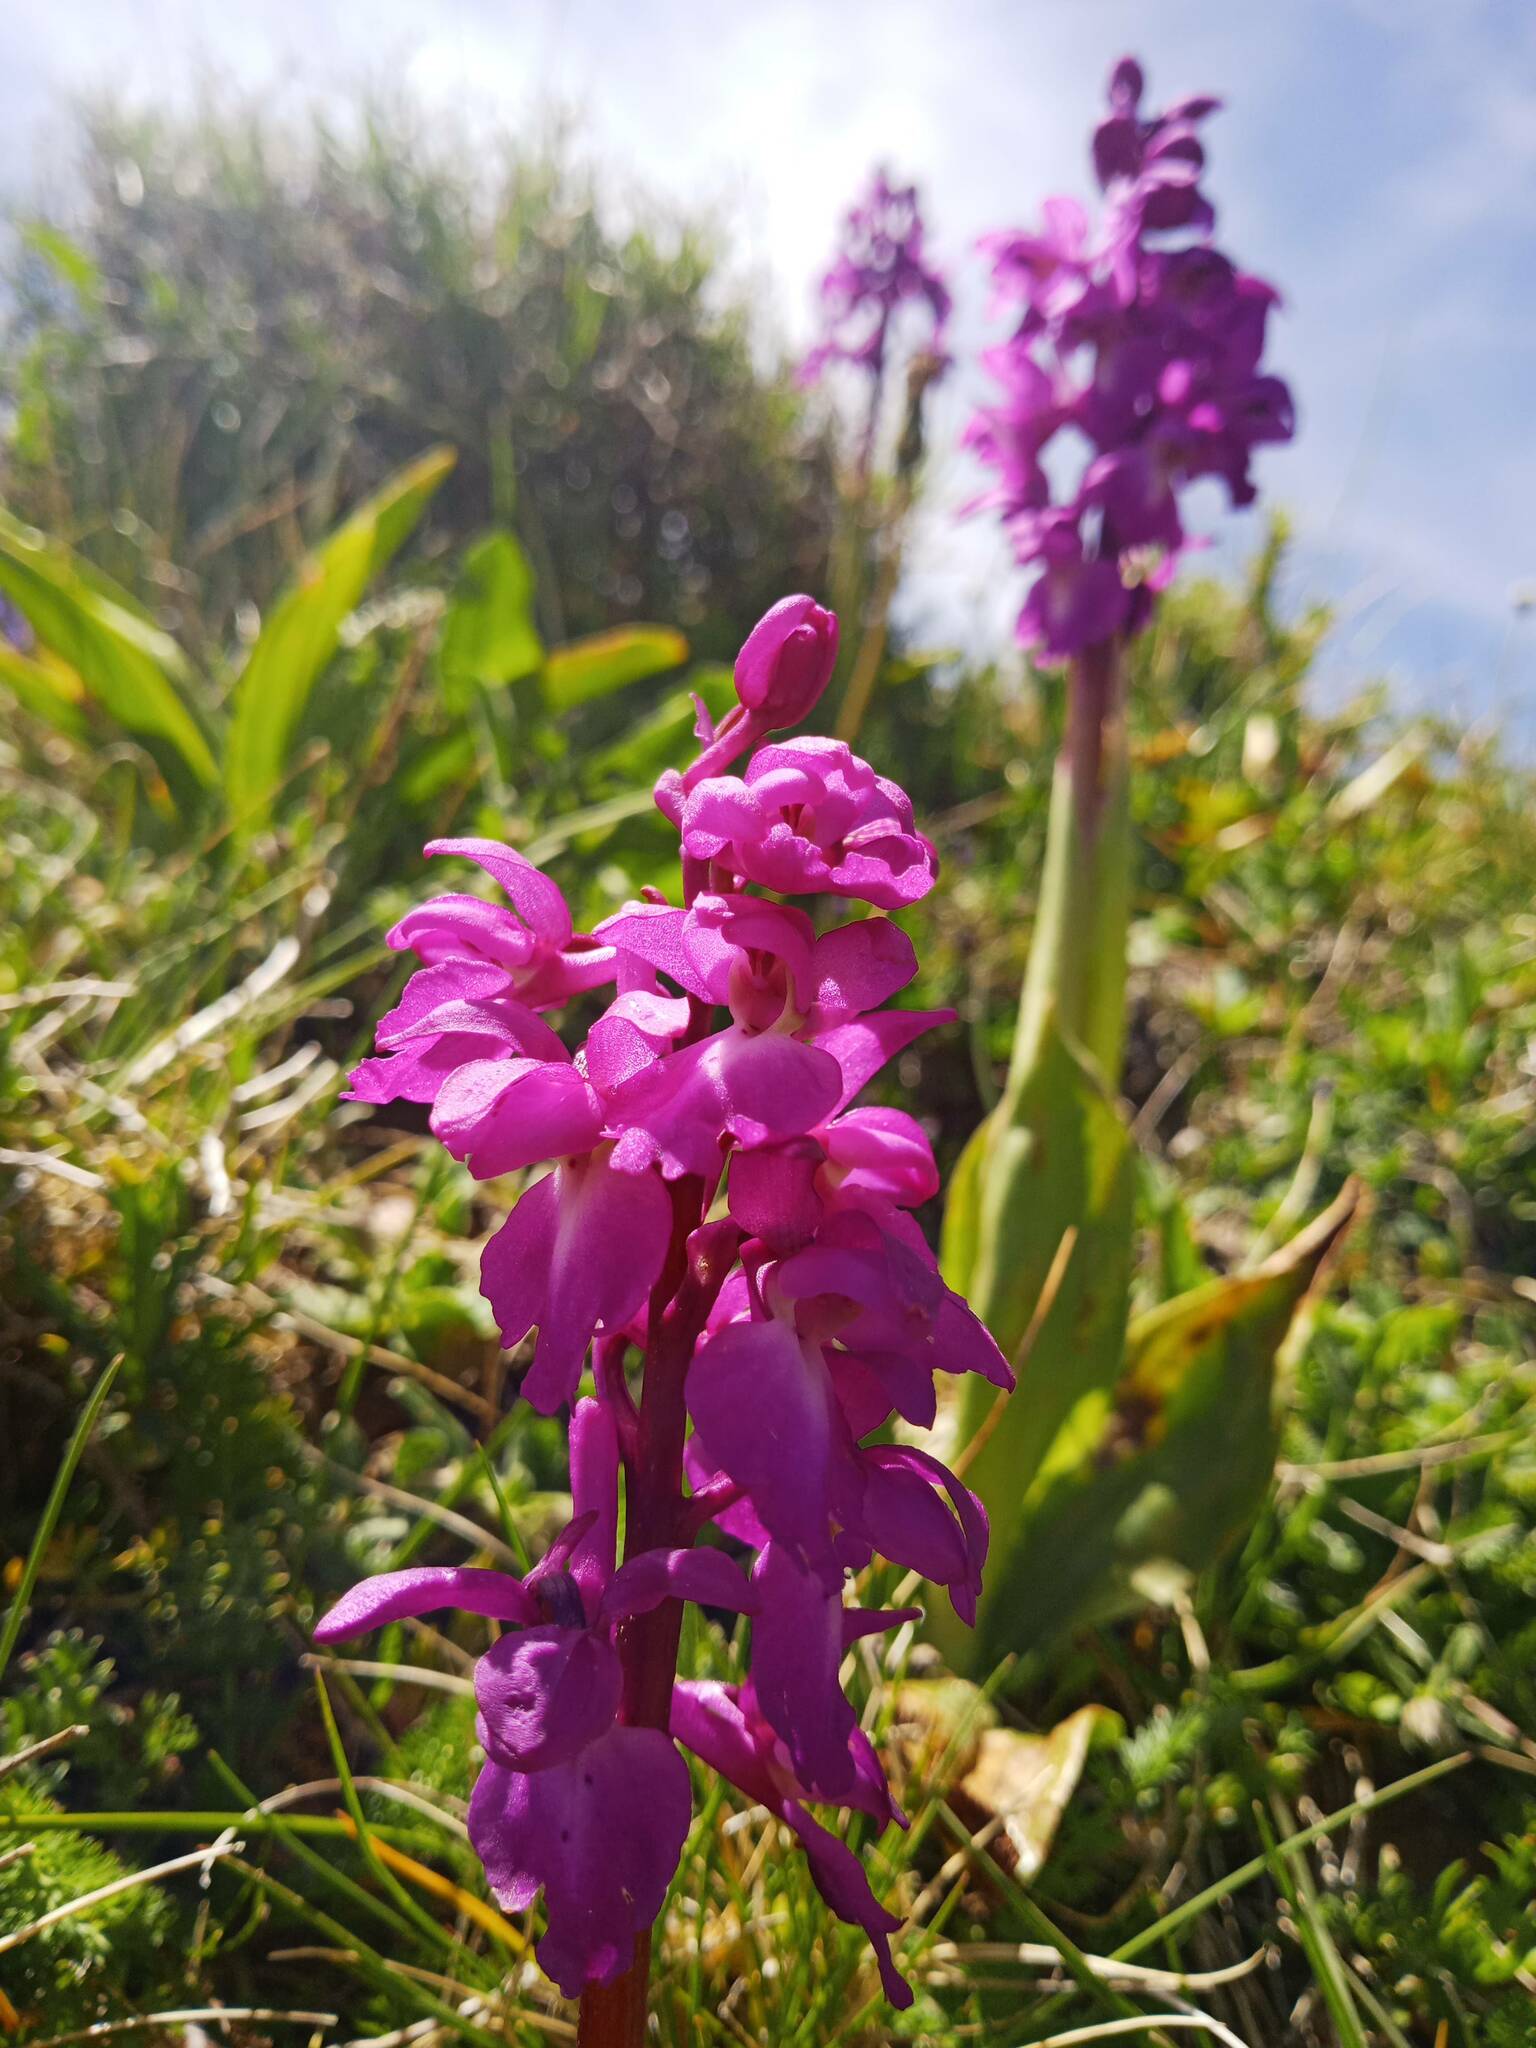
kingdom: Plantae
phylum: Tracheophyta
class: Liliopsida
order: Asparagales
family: Orchidaceae
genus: Orchis
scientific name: Orchis mascula
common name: Early-purple orchid
